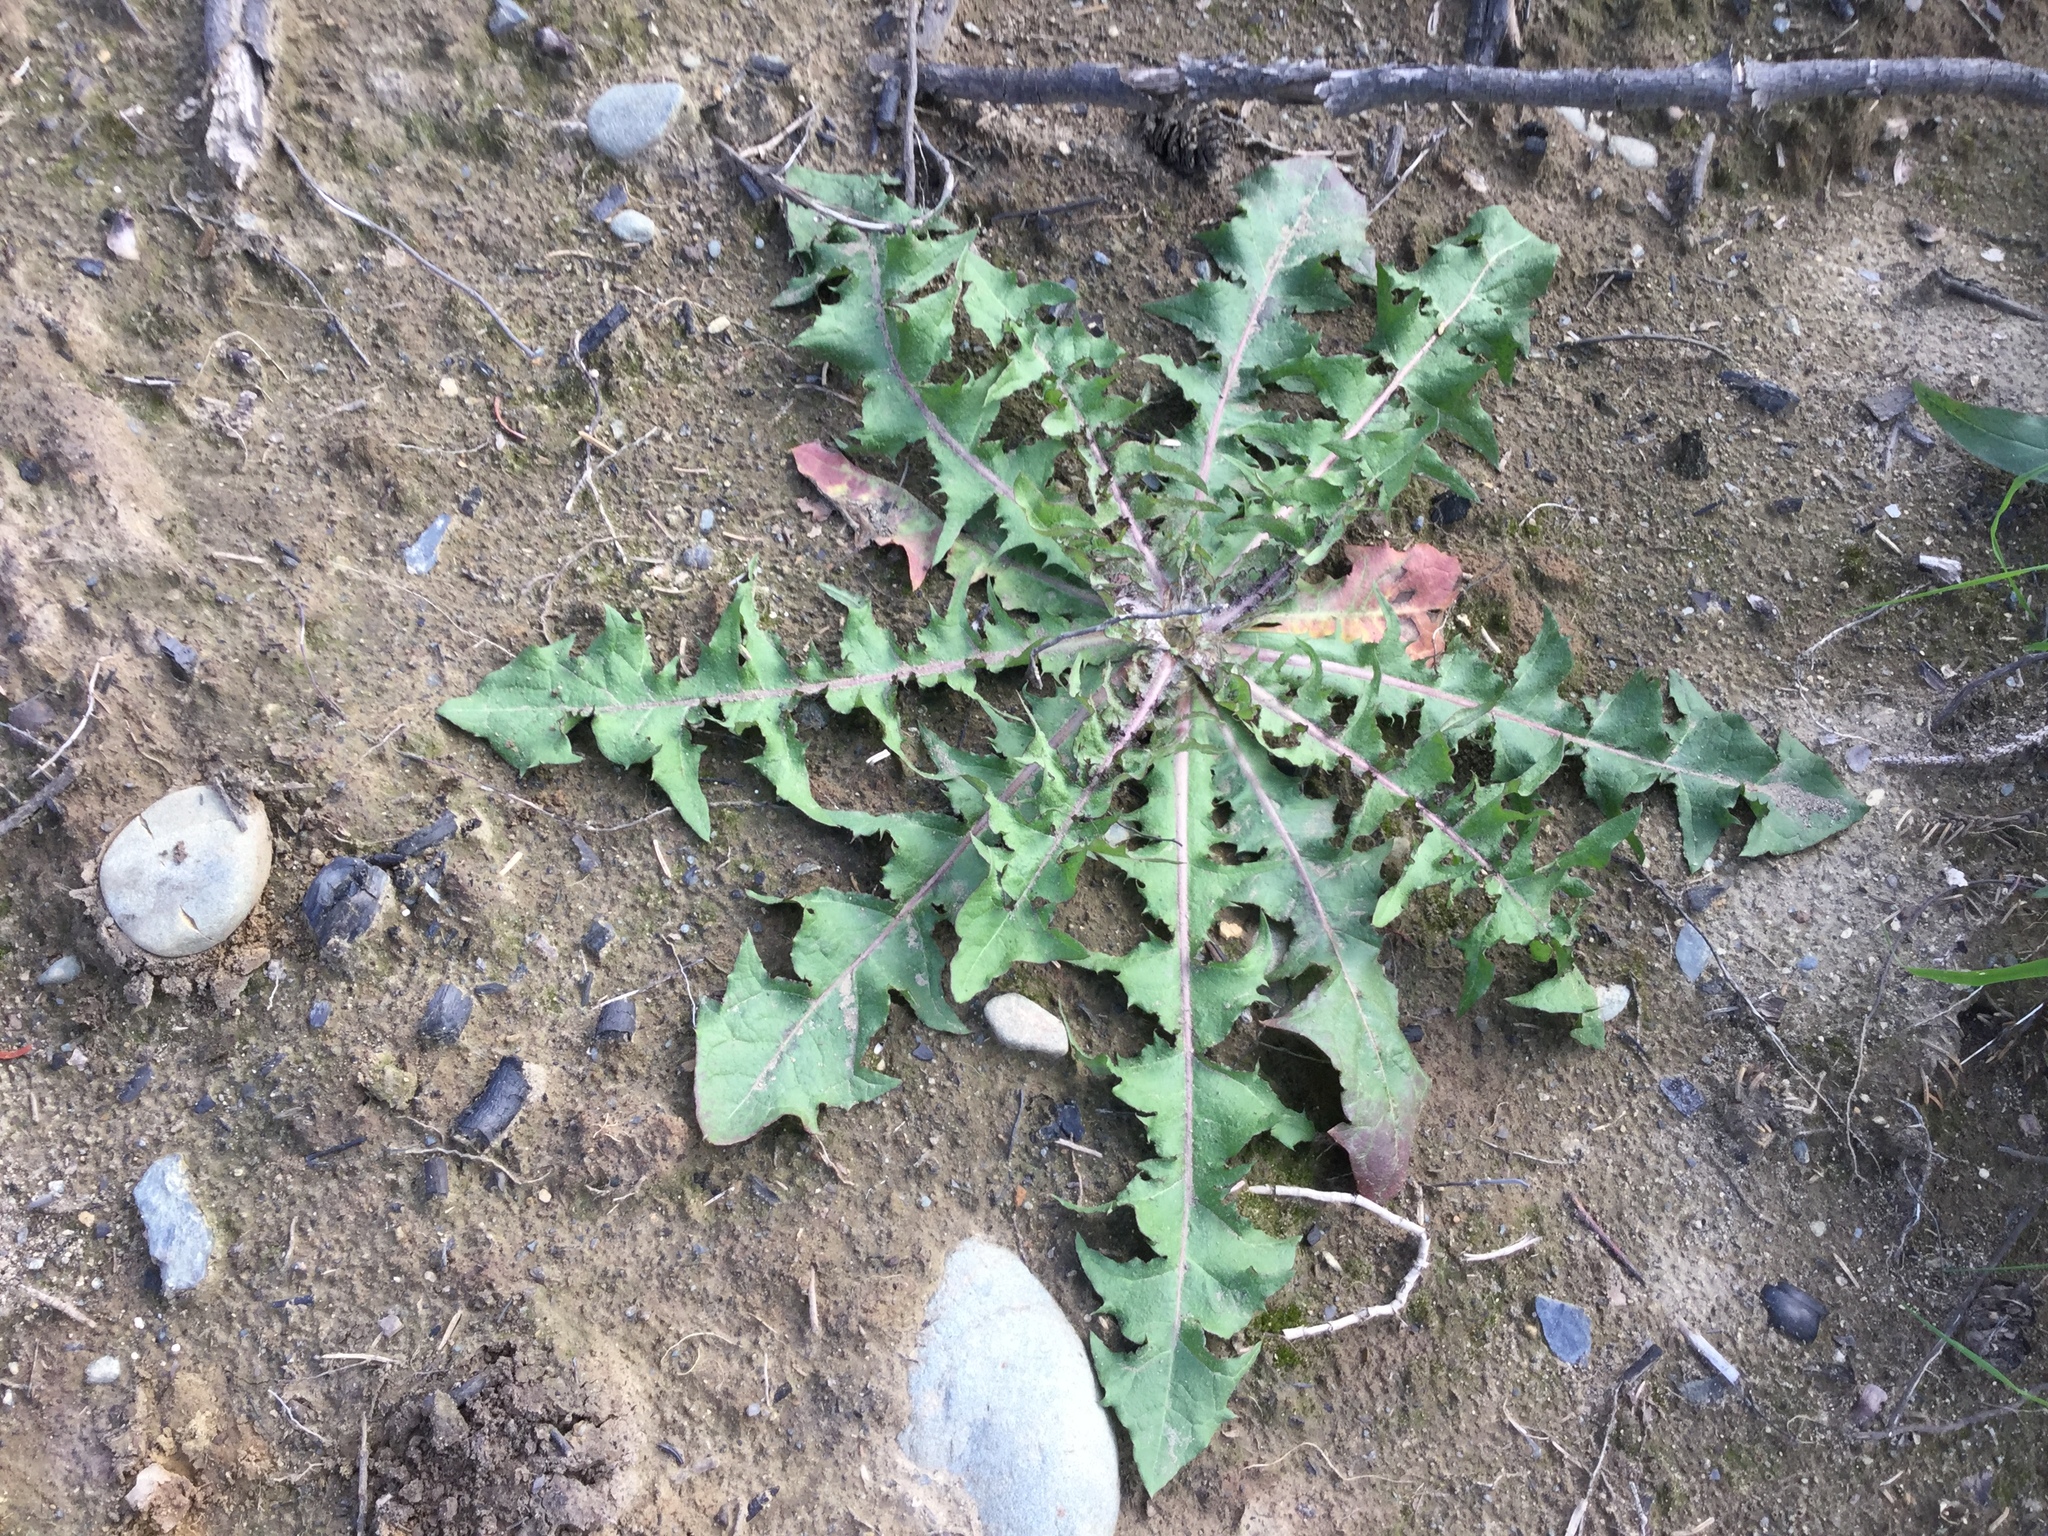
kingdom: Plantae
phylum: Tracheophyta
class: Magnoliopsida
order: Asterales
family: Asteraceae
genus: Taraxacum
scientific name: Taraxacum officinale
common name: Common dandelion
